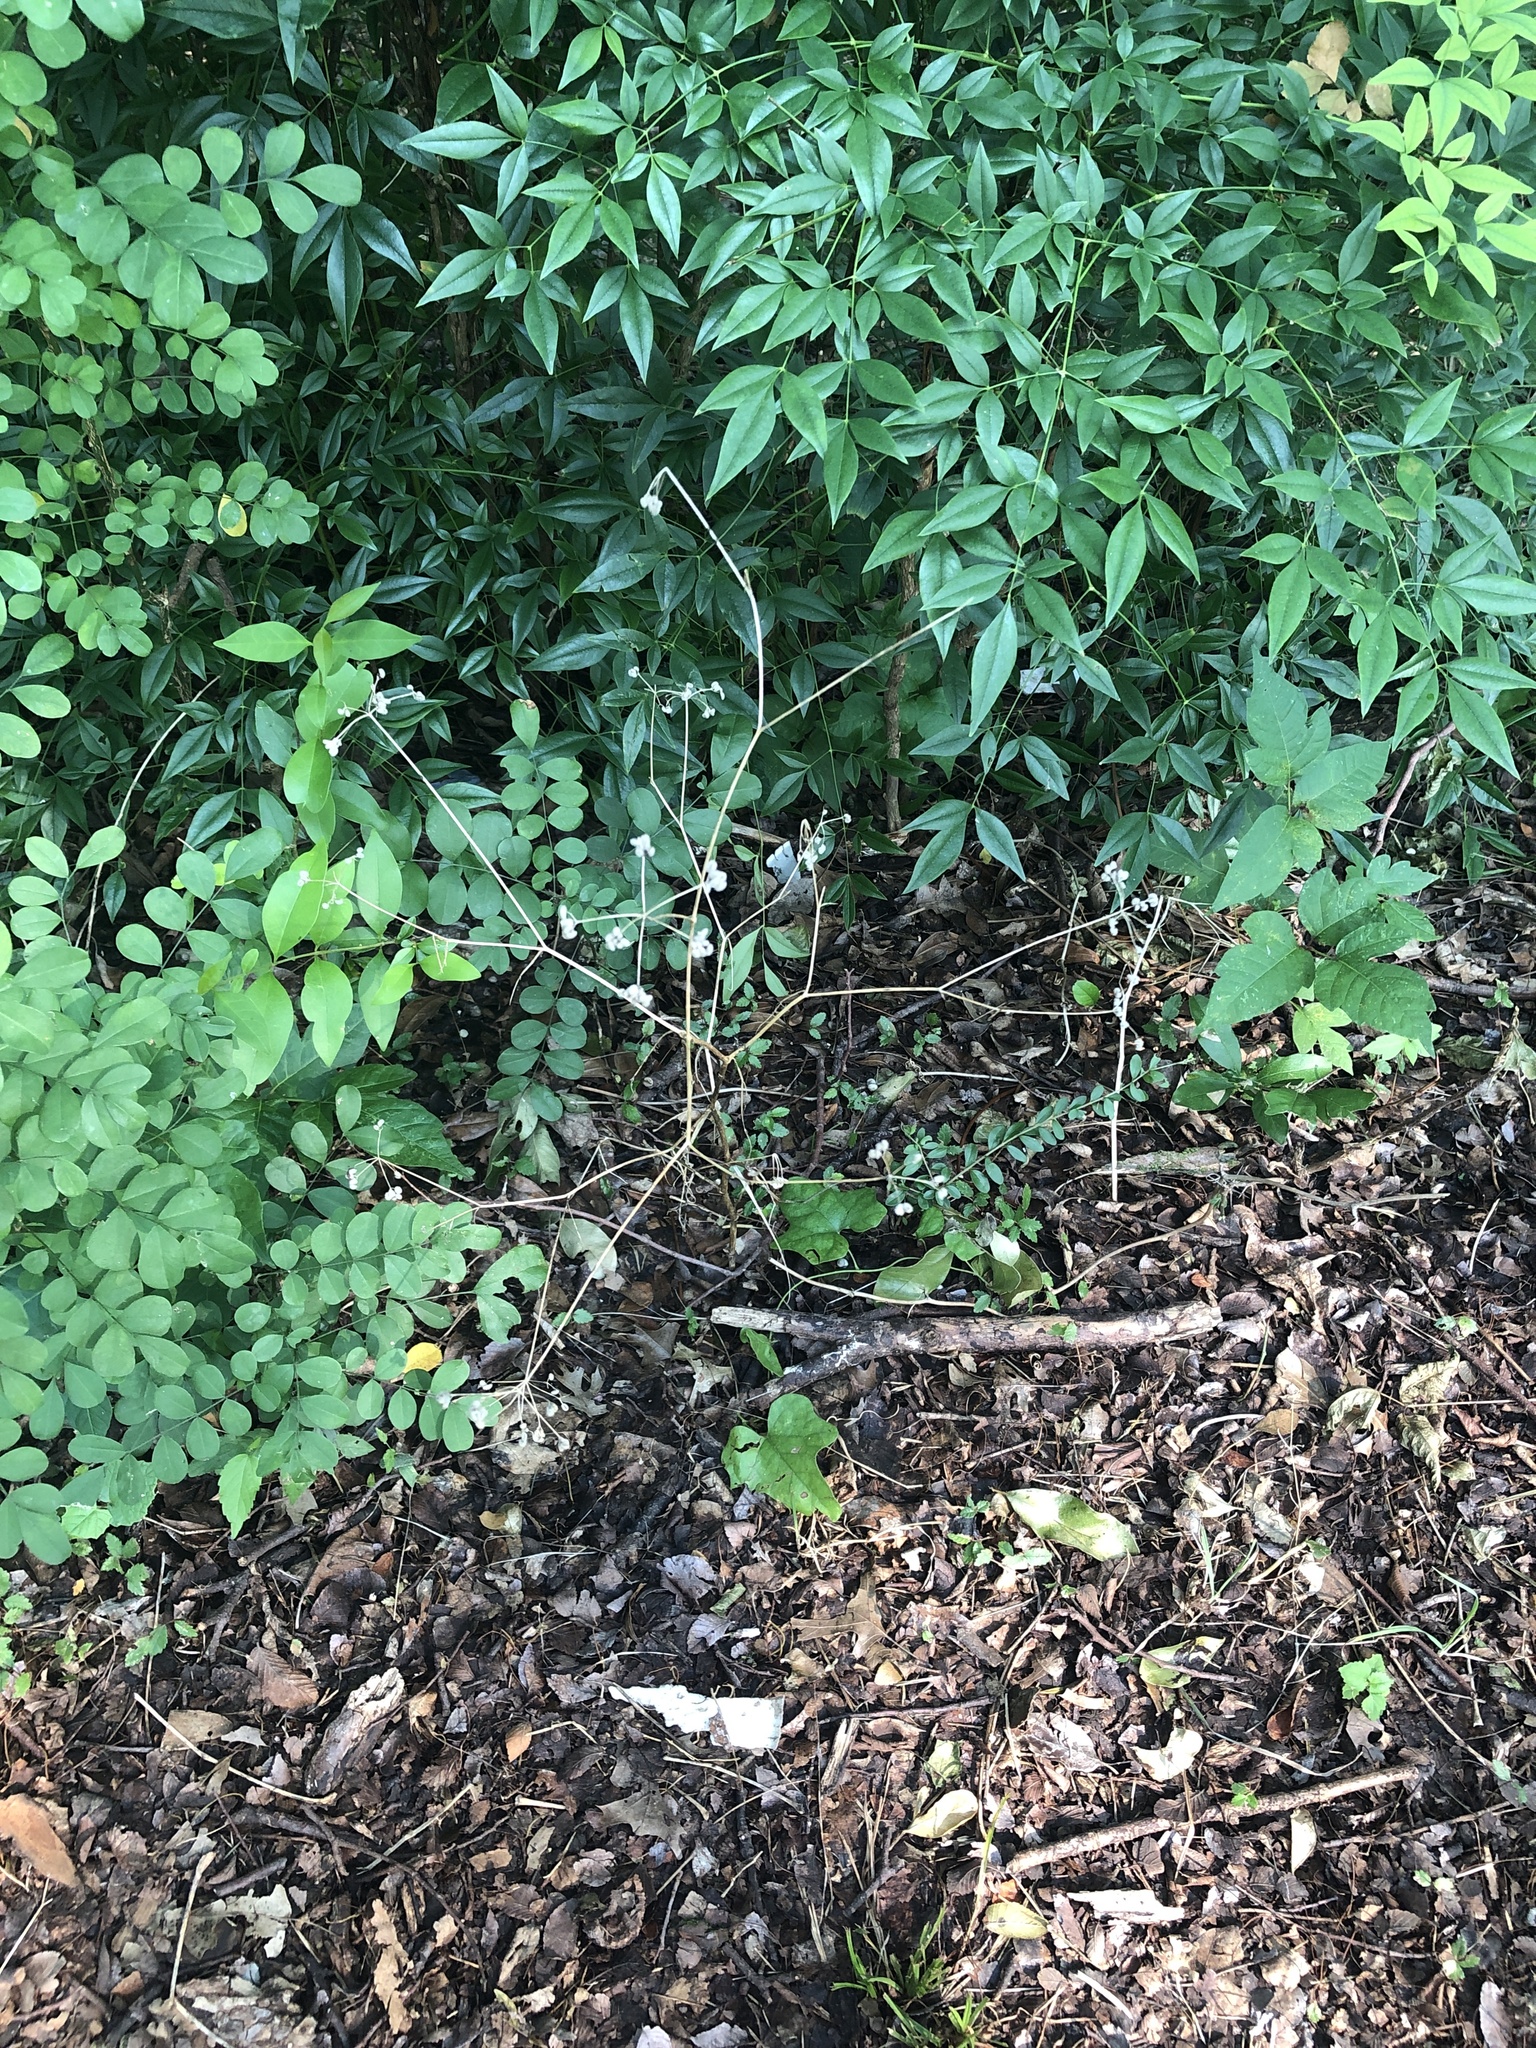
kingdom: Plantae
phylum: Tracheophyta
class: Magnoliopsida
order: Apiales
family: Apiaceae
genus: Torilis
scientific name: Torilis arvensis
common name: Spreading hedge-parsley
